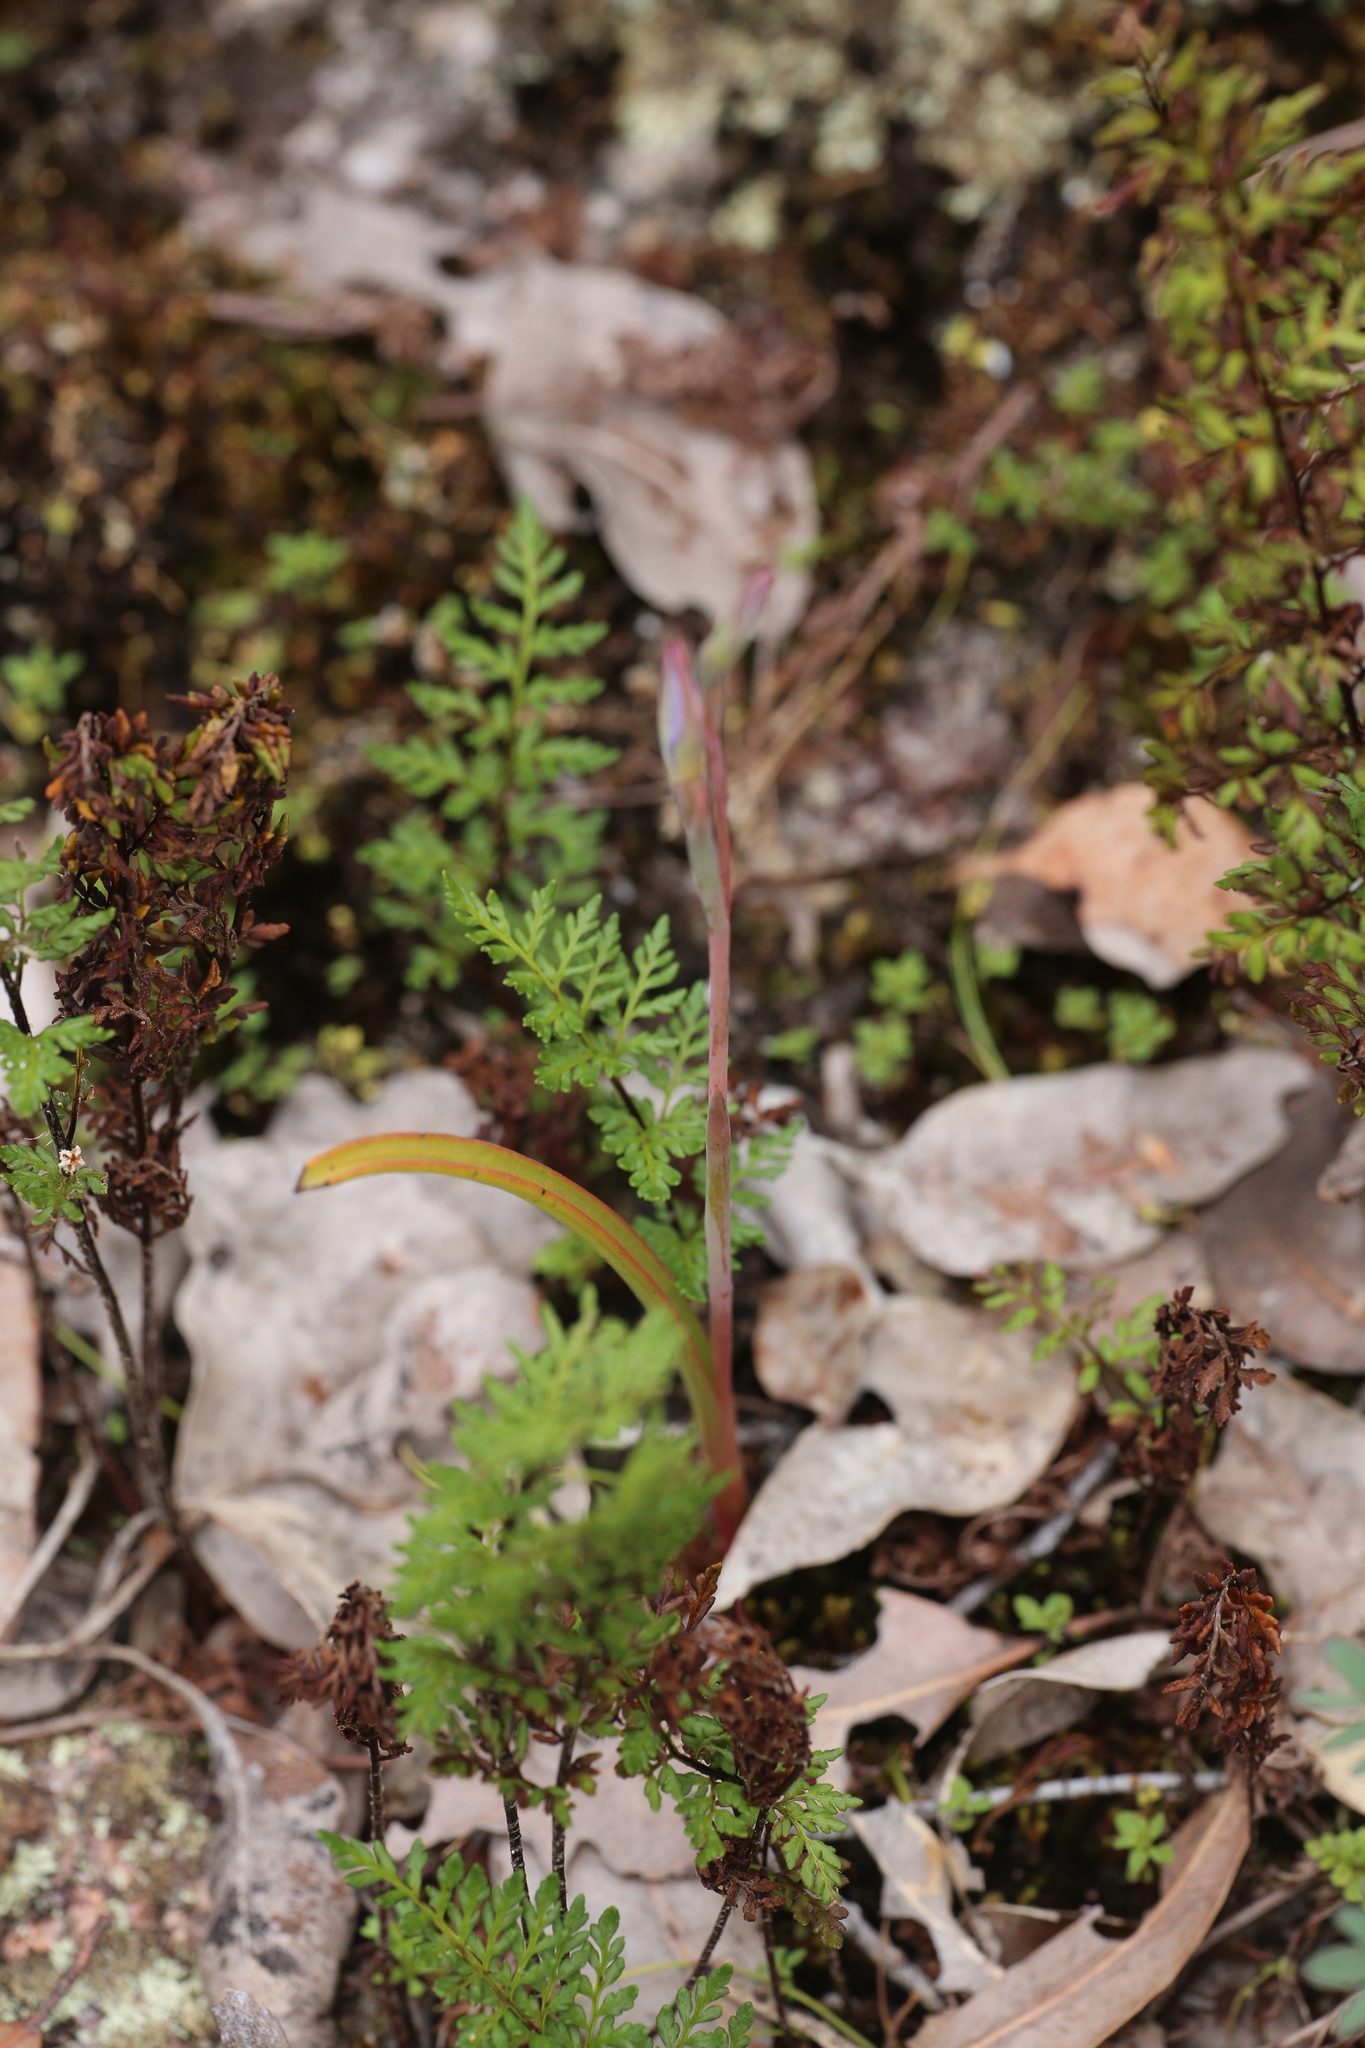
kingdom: Plantae
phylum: Tracheophyta
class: Polypodiopsida
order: Polypodiales
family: Pteridaceae
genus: Cheilanthes
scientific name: Cheilanthes austrotenuifolia
